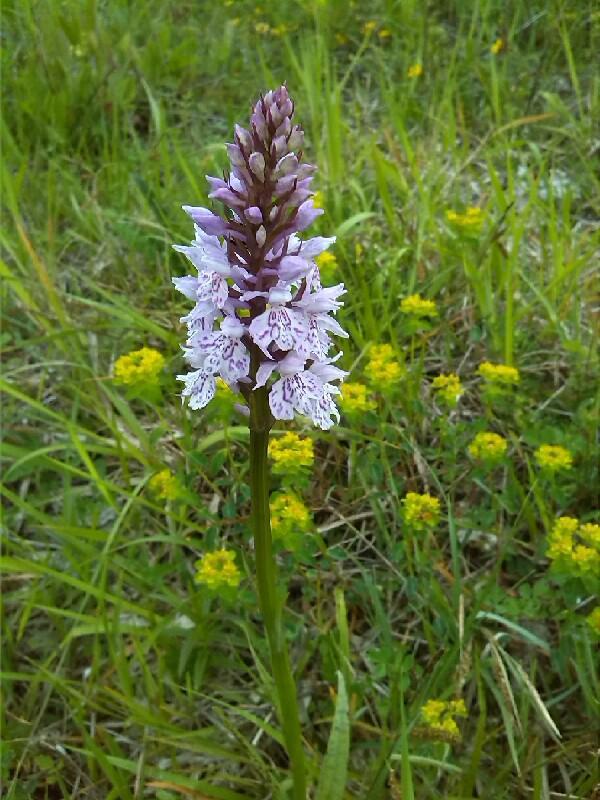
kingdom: Plantae
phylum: Tracheophyta
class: Liliopsida
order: Asparagales
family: Orchidaceae
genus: Dactylorhiza
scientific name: Dactylorhiza maculata
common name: Heath spotted-orchid
